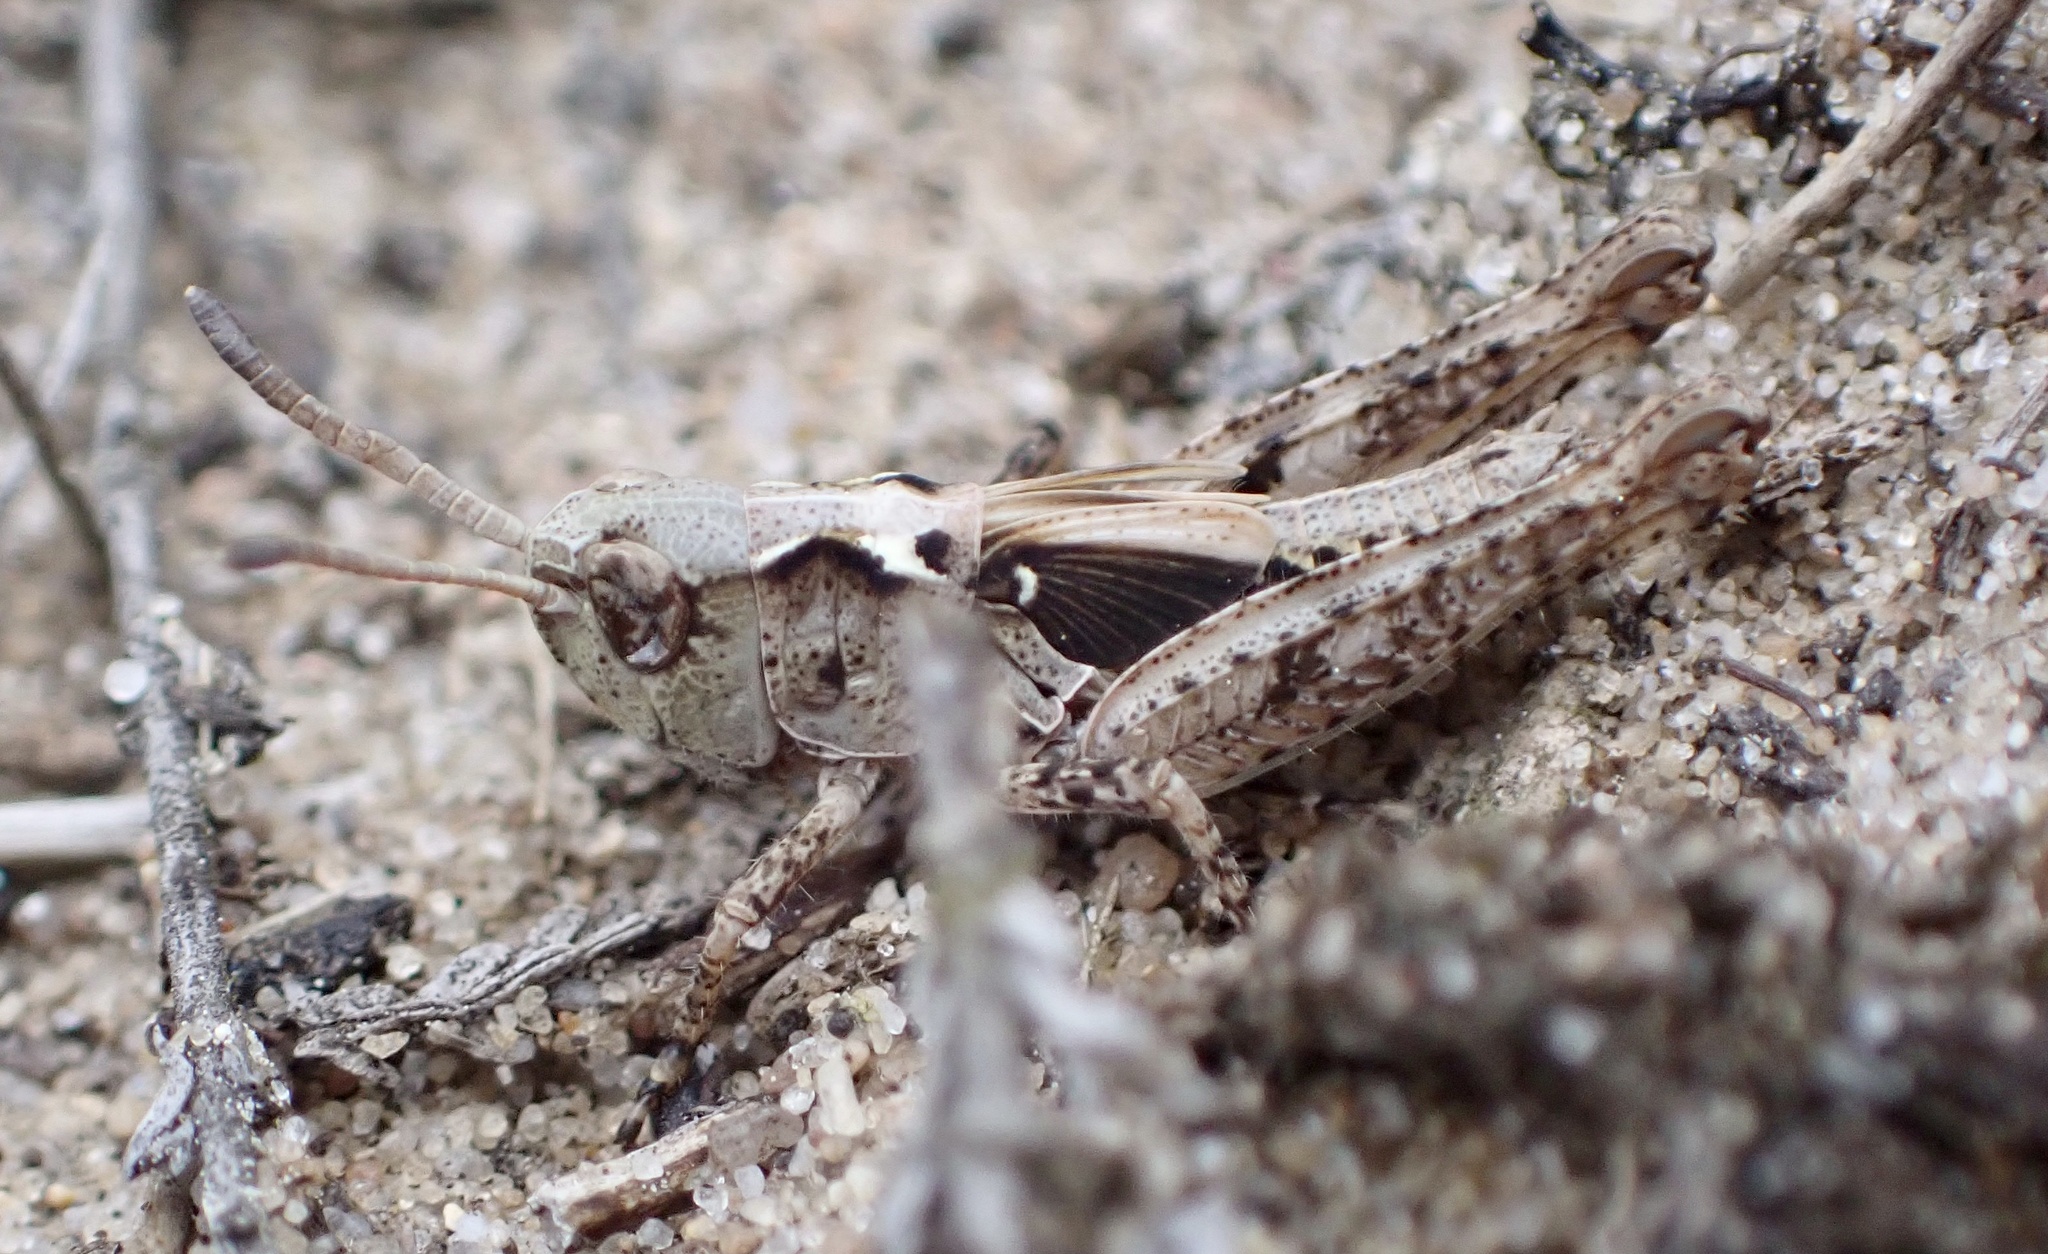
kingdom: Animalia
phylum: Arthropoda
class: Insecta
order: Orthoptera
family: Acrididae
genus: Myrmeleotettix
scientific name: Myrmeleotettix maculatus
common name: Mottled grasshopper
